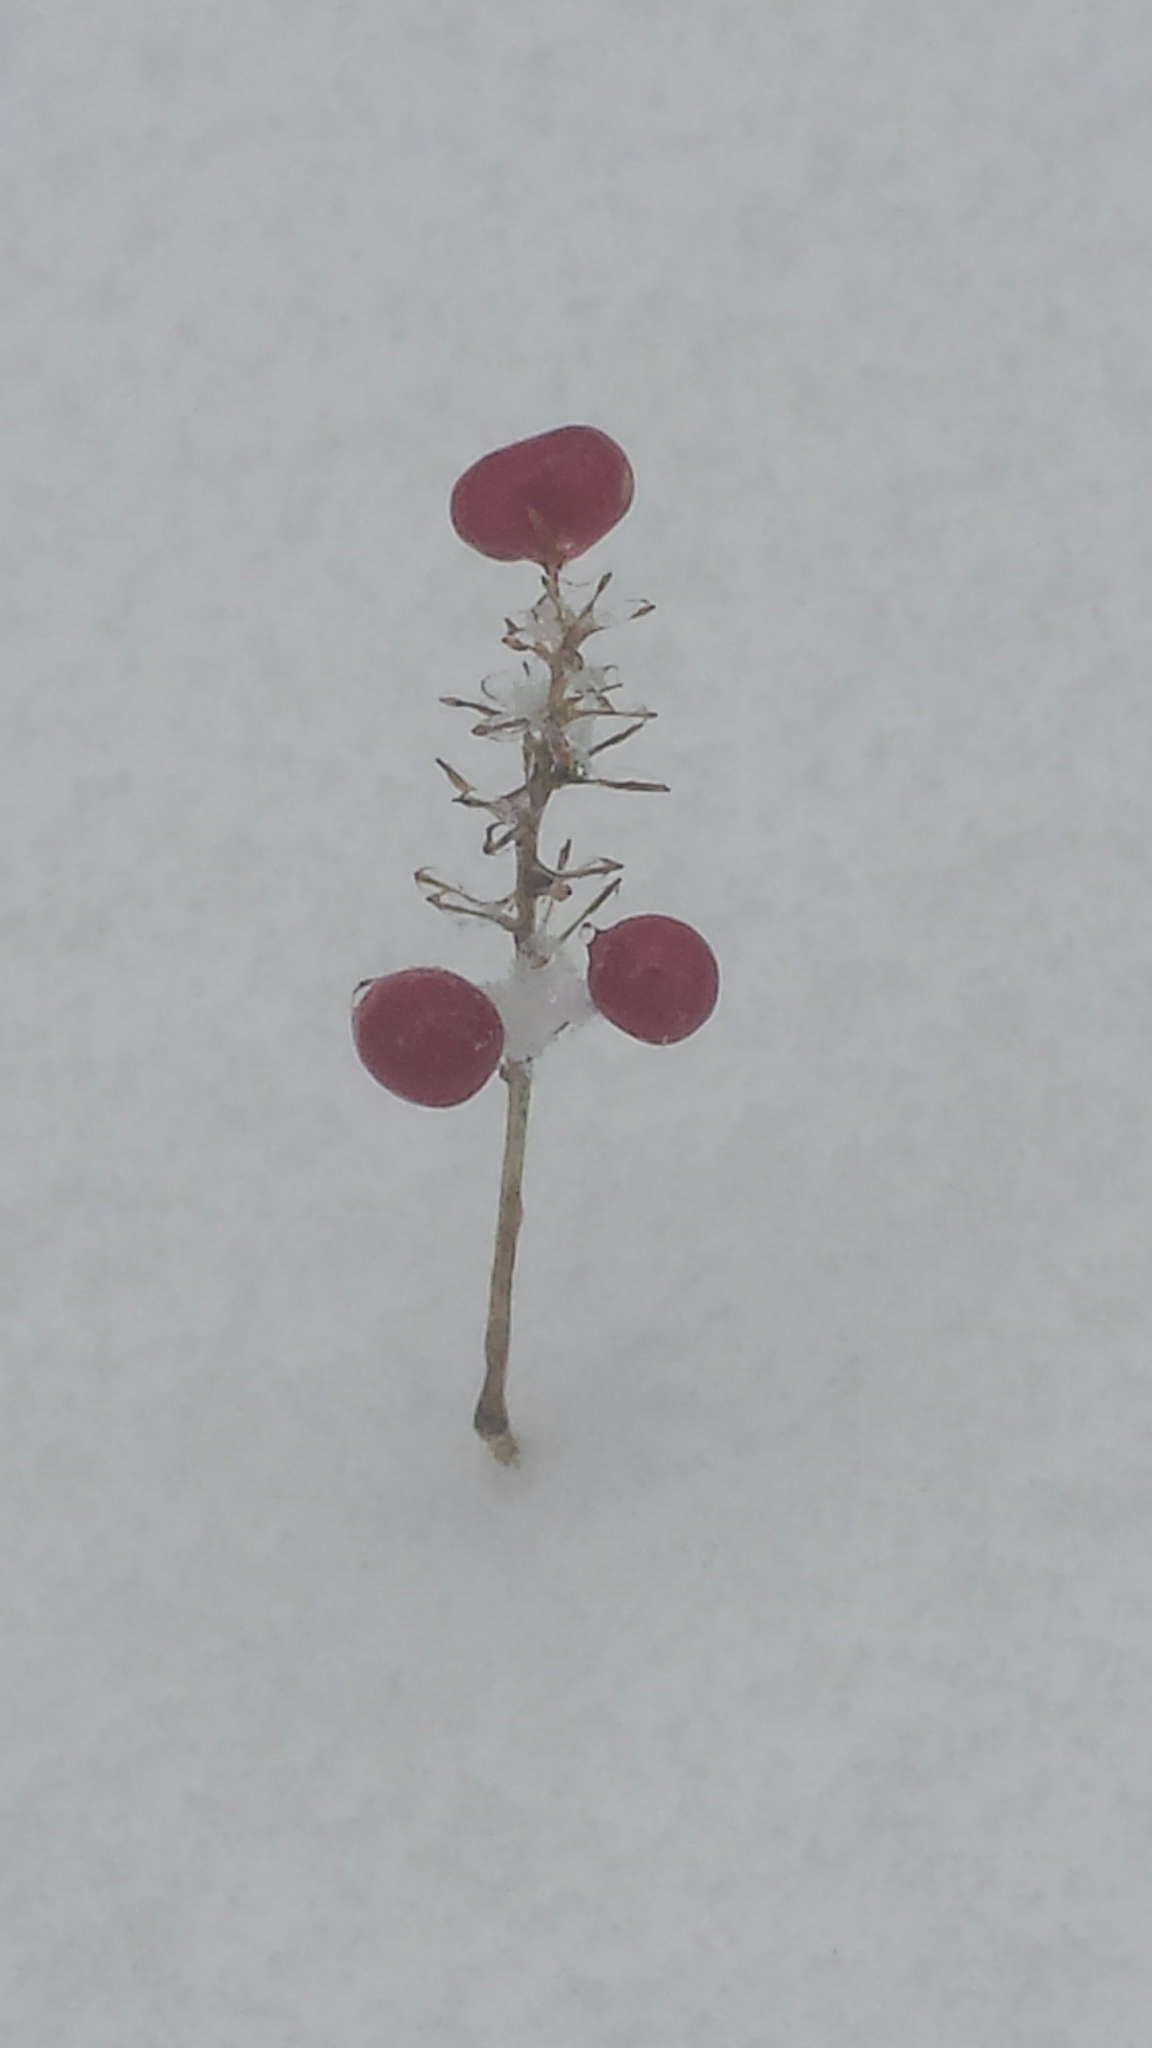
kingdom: Plantae
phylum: Tracheophyta
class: Liliopsida
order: Asparagales
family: Asparagaceae
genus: Maianthemum
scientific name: Maianthemum canadense
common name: False lily-of-the-valley
